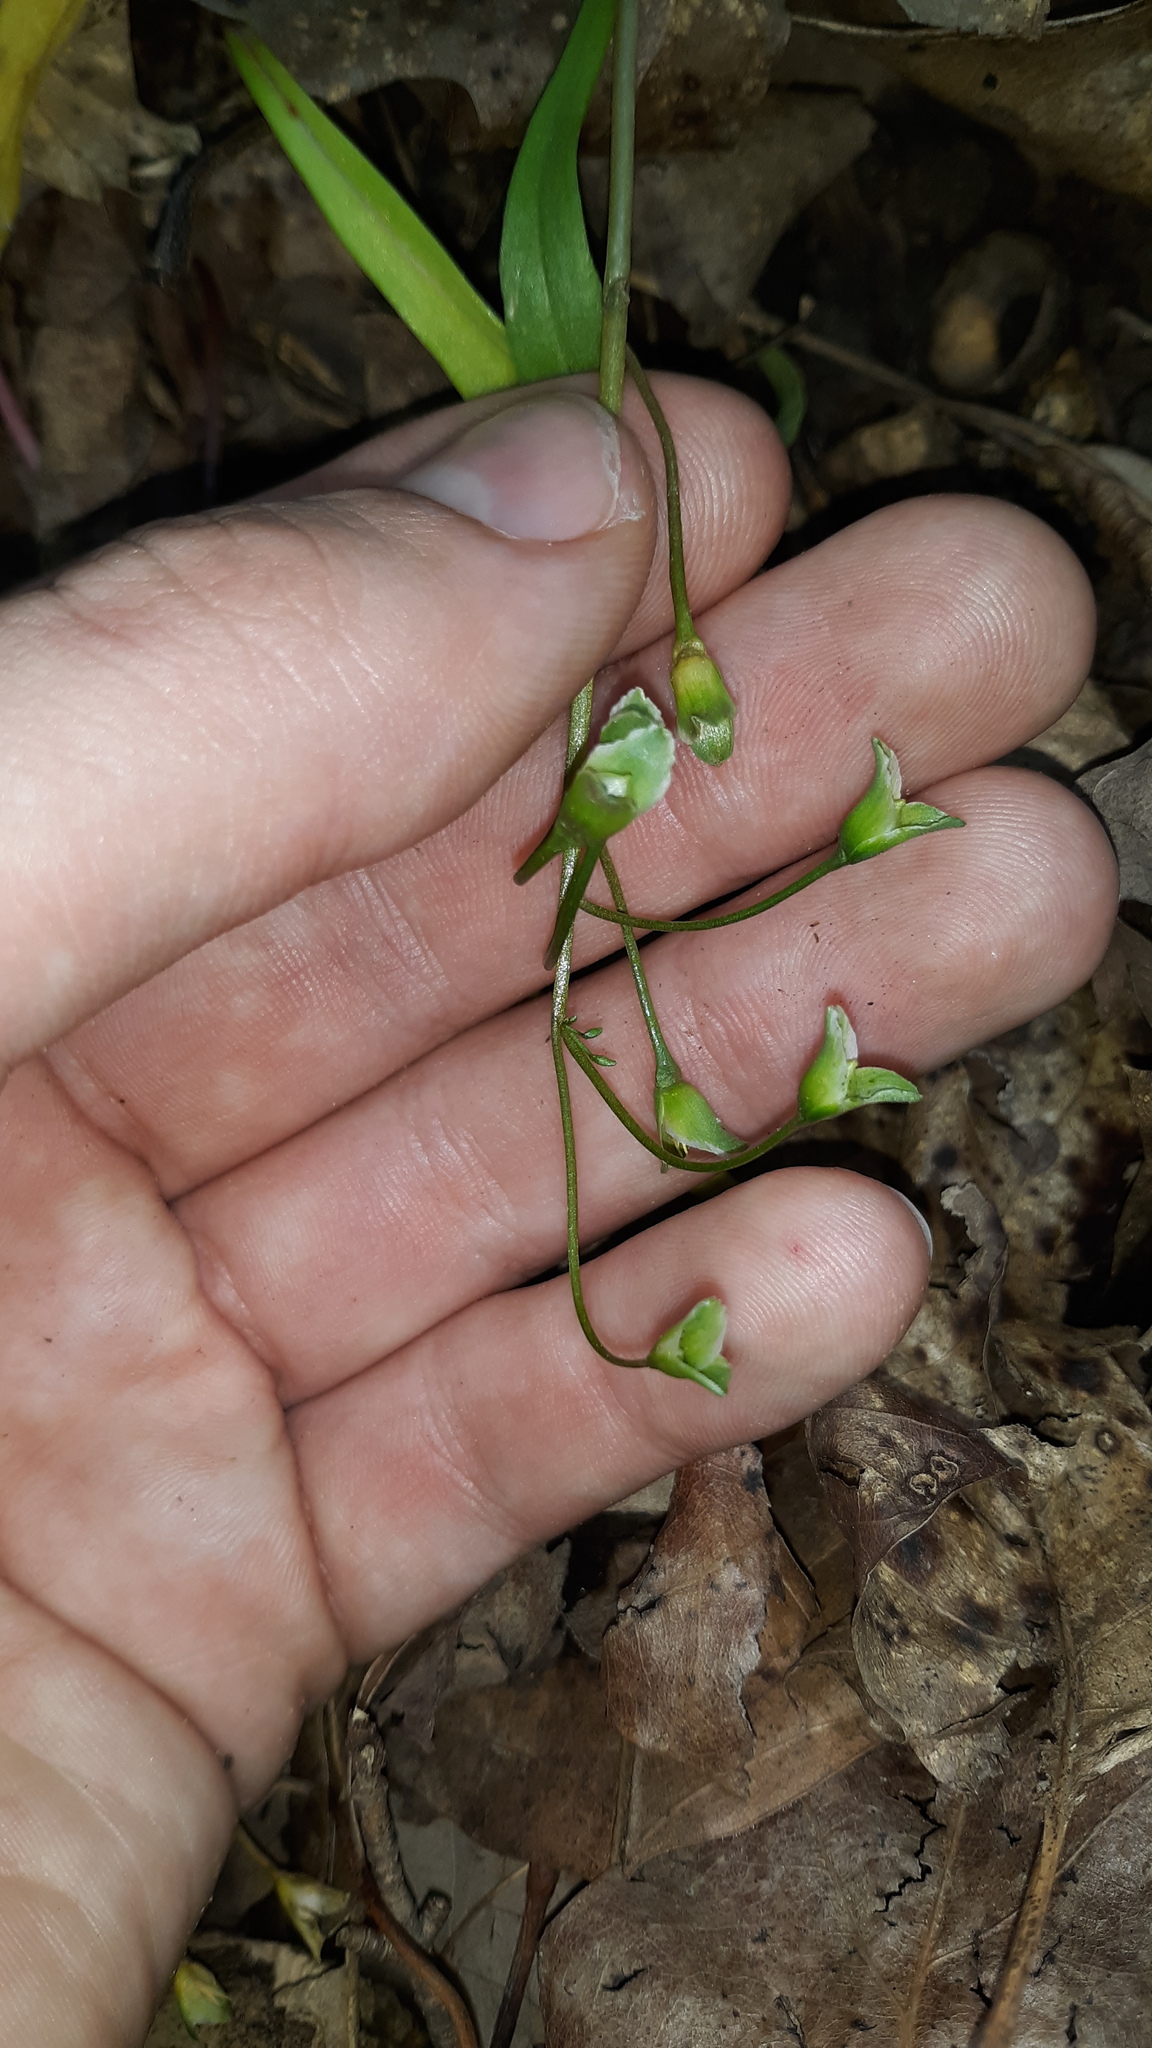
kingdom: Plantae
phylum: Tracheophyta
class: Magnoliopsida
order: Caryophyllales
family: Montiaceae
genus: Claytonia
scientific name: Claytonia virginica
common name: Virginia springbeauty
